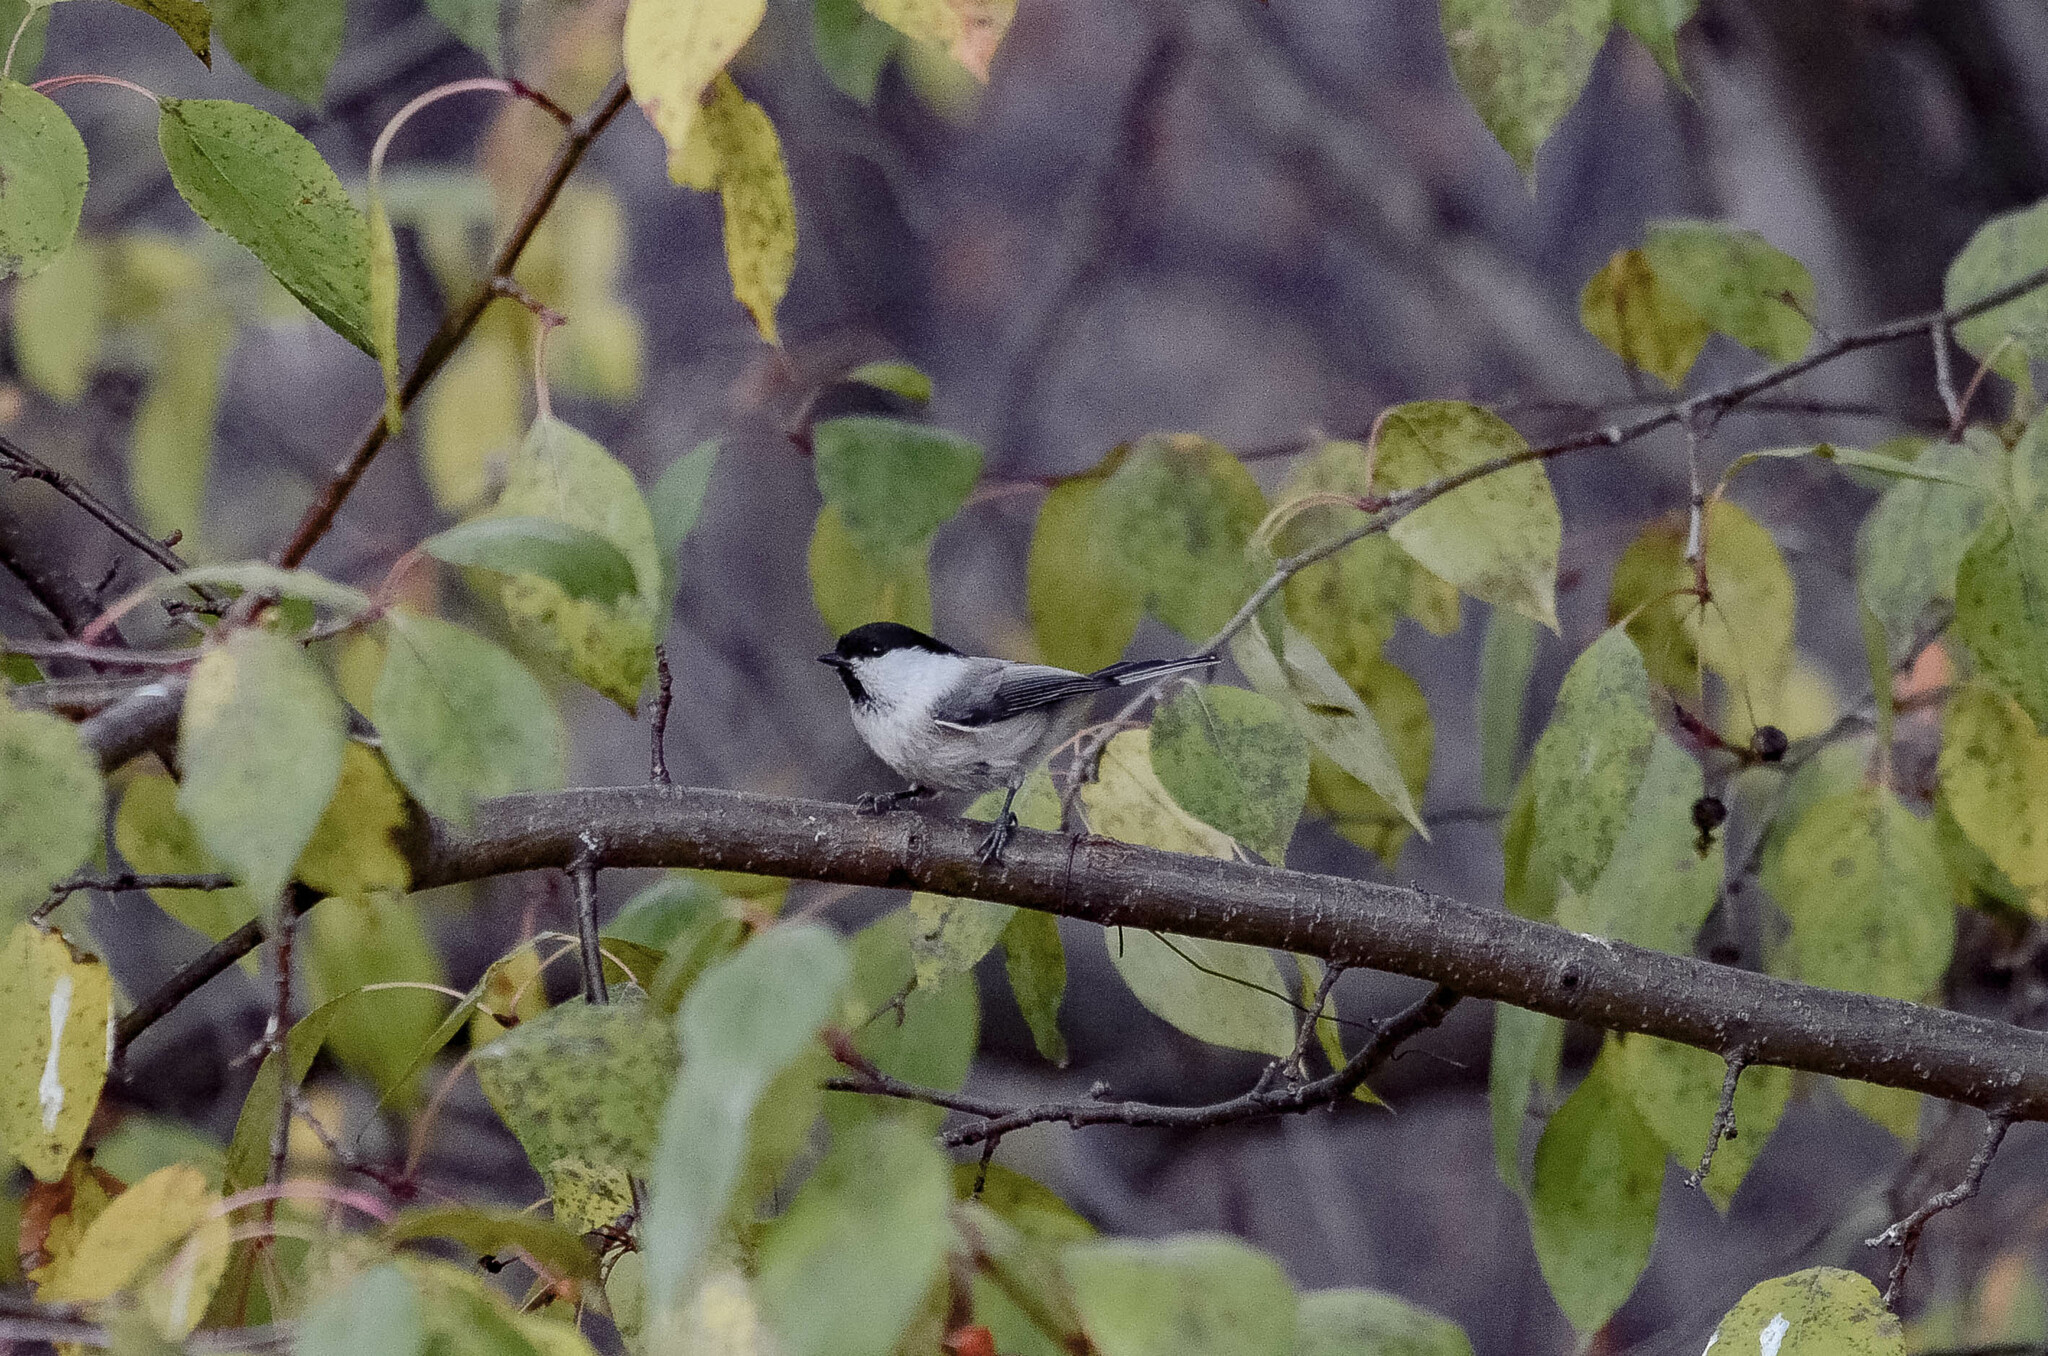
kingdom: Animalia
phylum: Chordata
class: Aves
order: Passeriformes
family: Paridae
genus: Poecile
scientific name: Poecile montanus
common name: Willow tit
